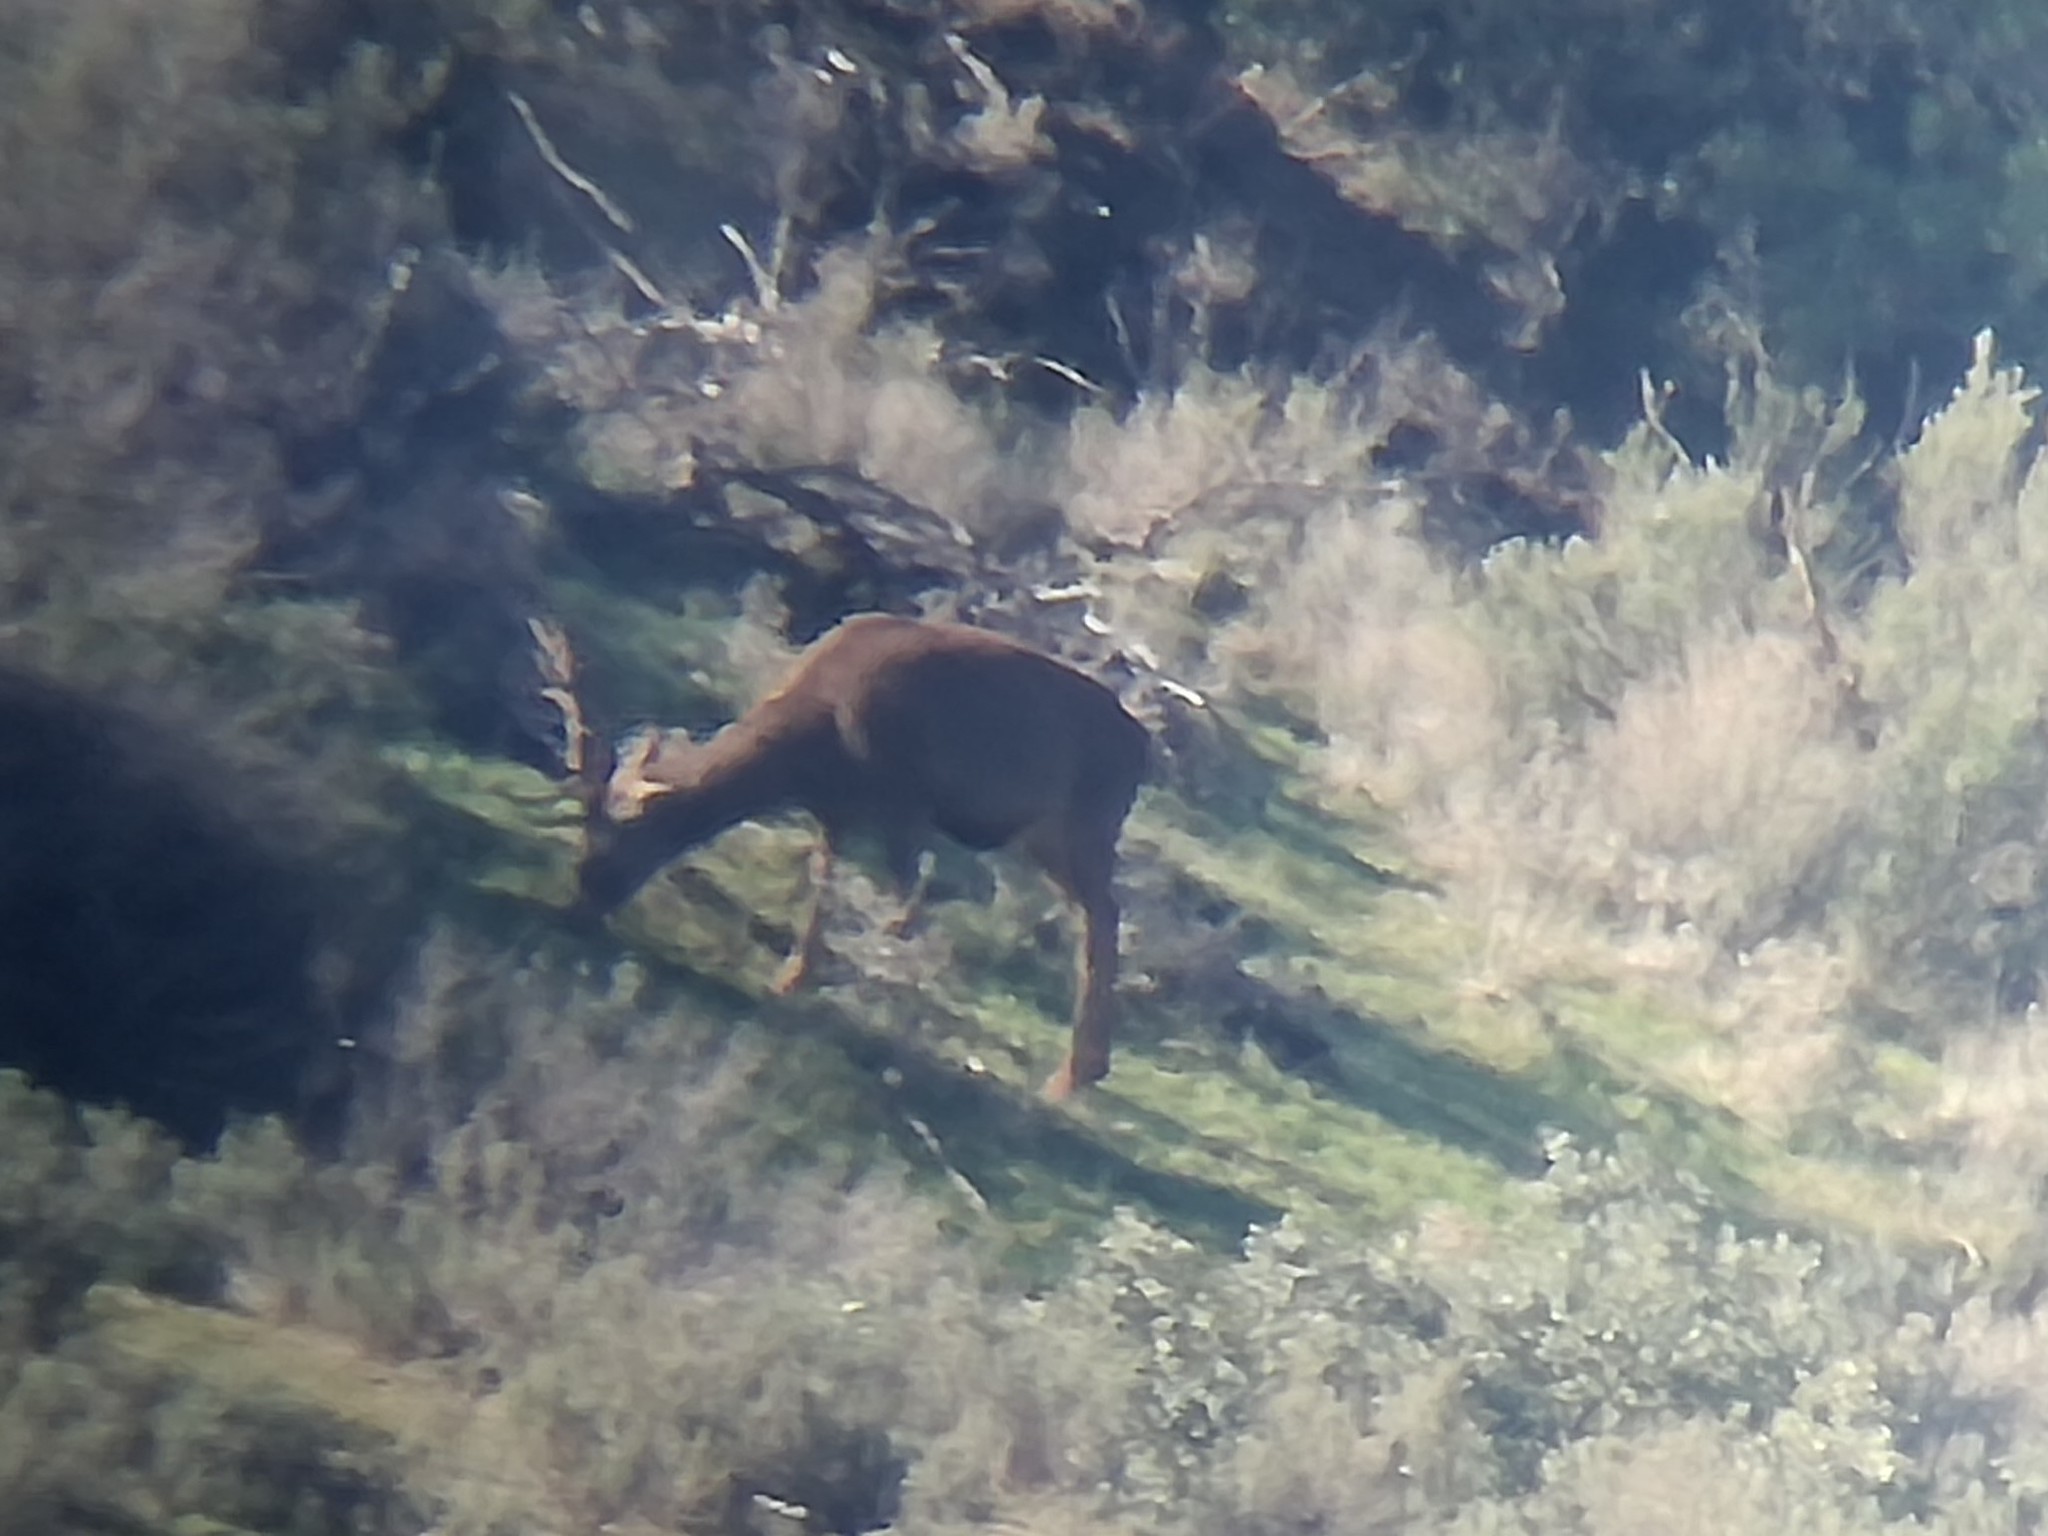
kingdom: Animalia
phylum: Chordata
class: Mammalia
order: Artiodactyla
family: Cervidae
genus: Cervus
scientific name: Cervus elaphus
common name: Red deer
